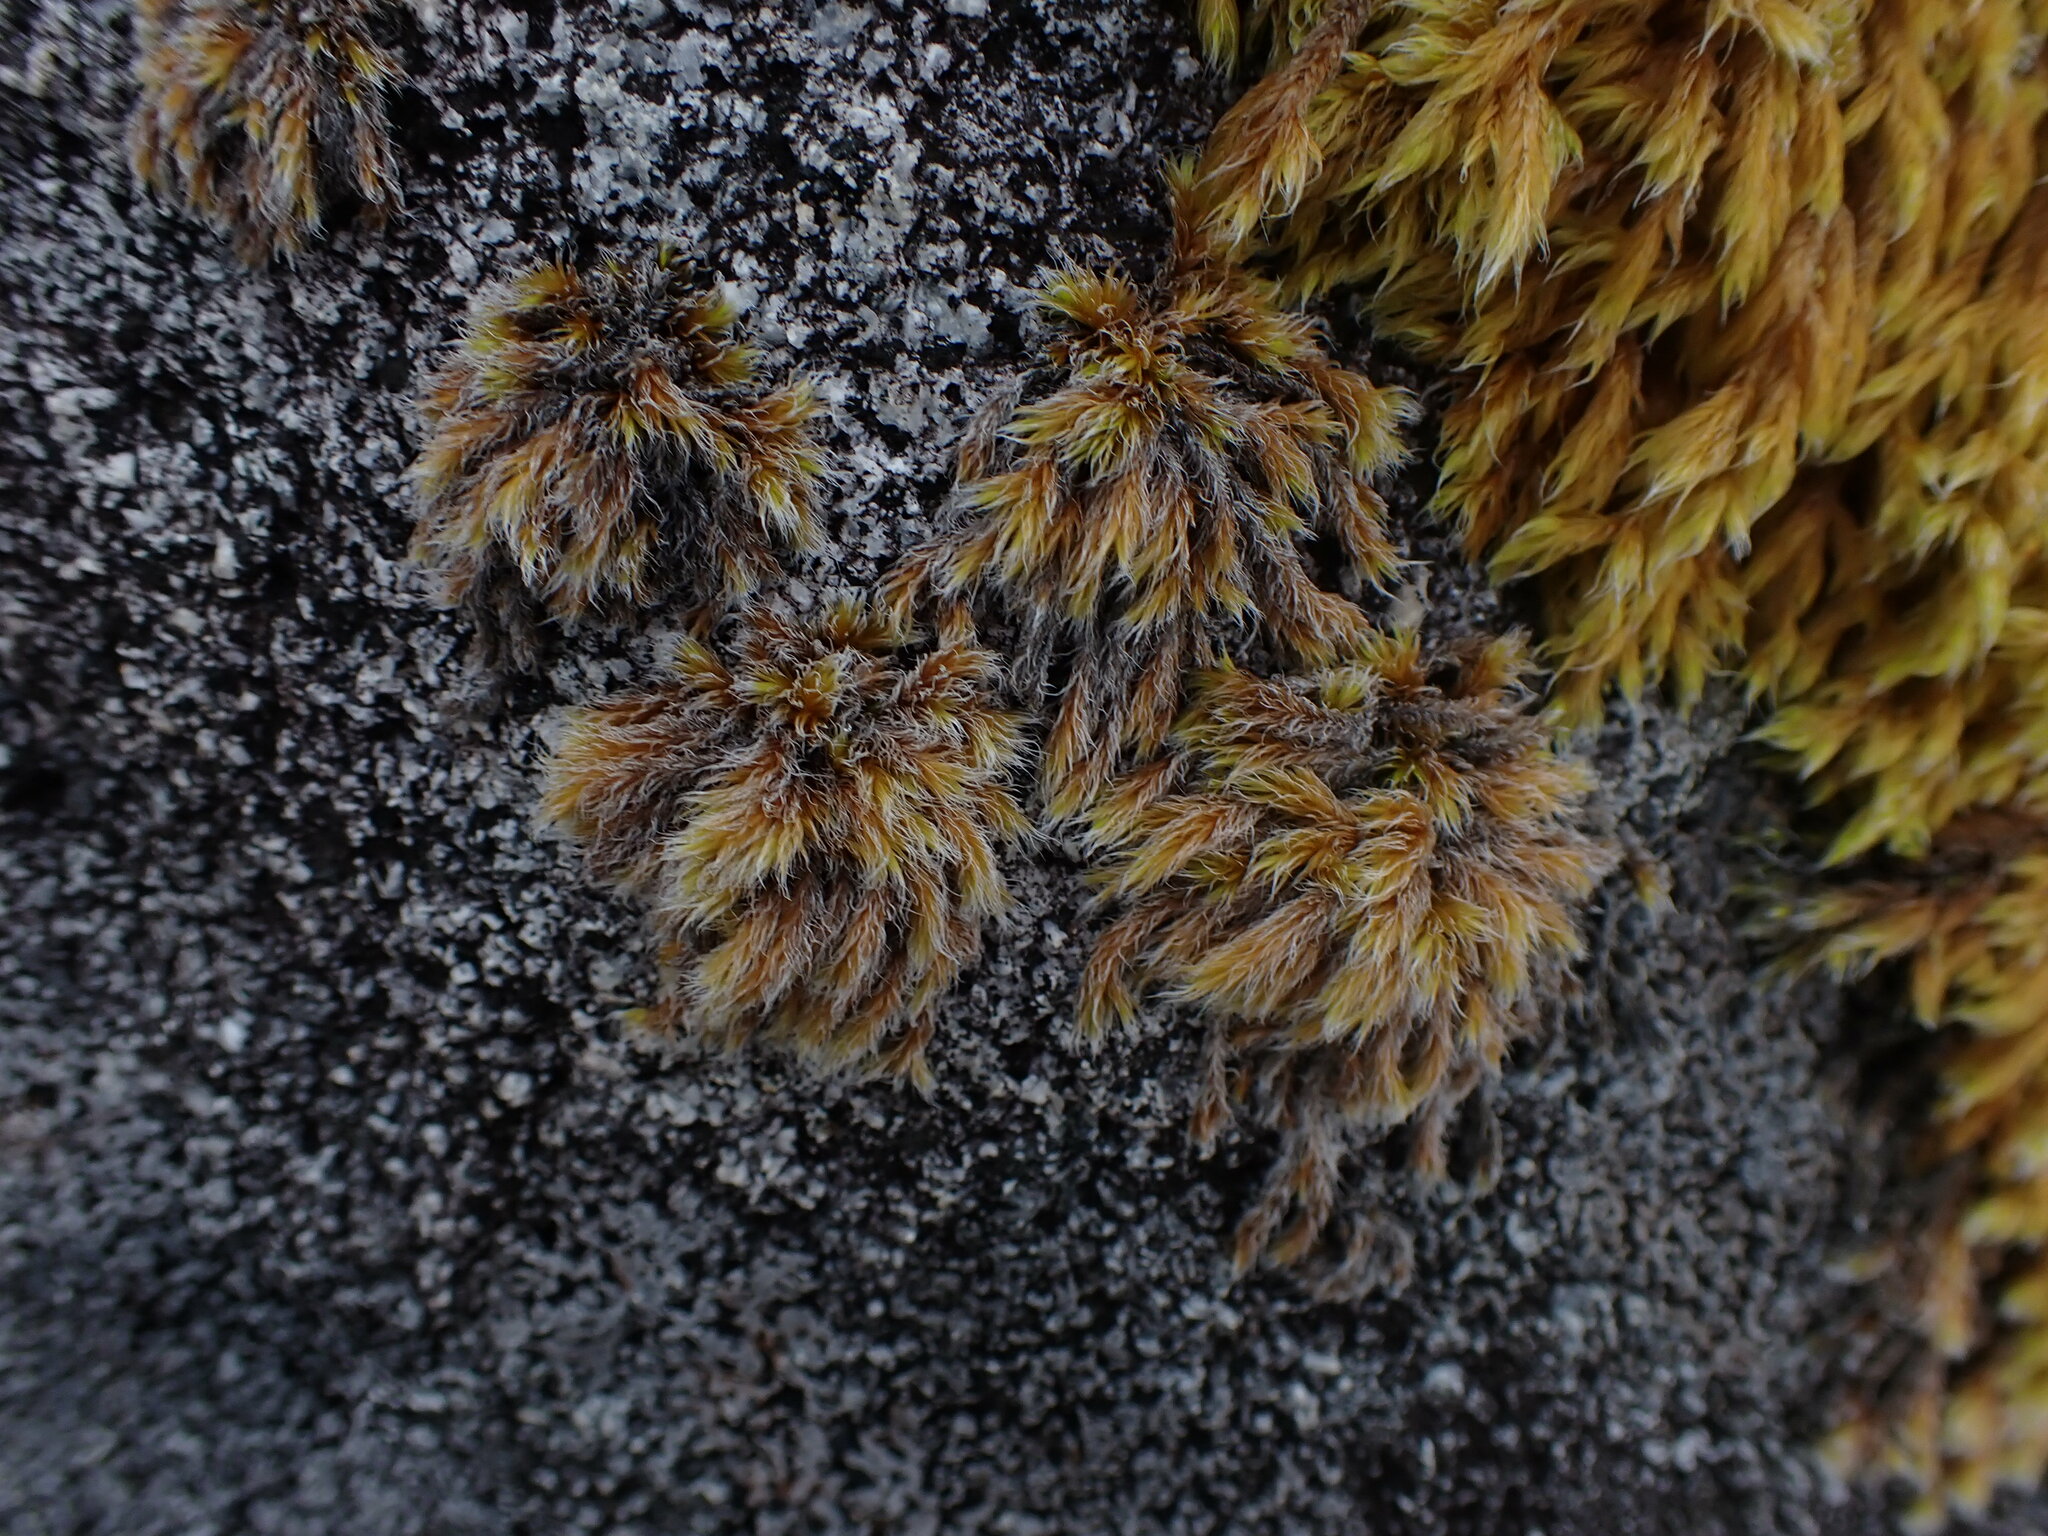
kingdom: Plantae
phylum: Bryophyta
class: Bryopsida
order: Grimmiales
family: Grimmiaceae
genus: Racomitrium
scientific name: Racomitrium lanuginosum
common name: Hoary rock moss
